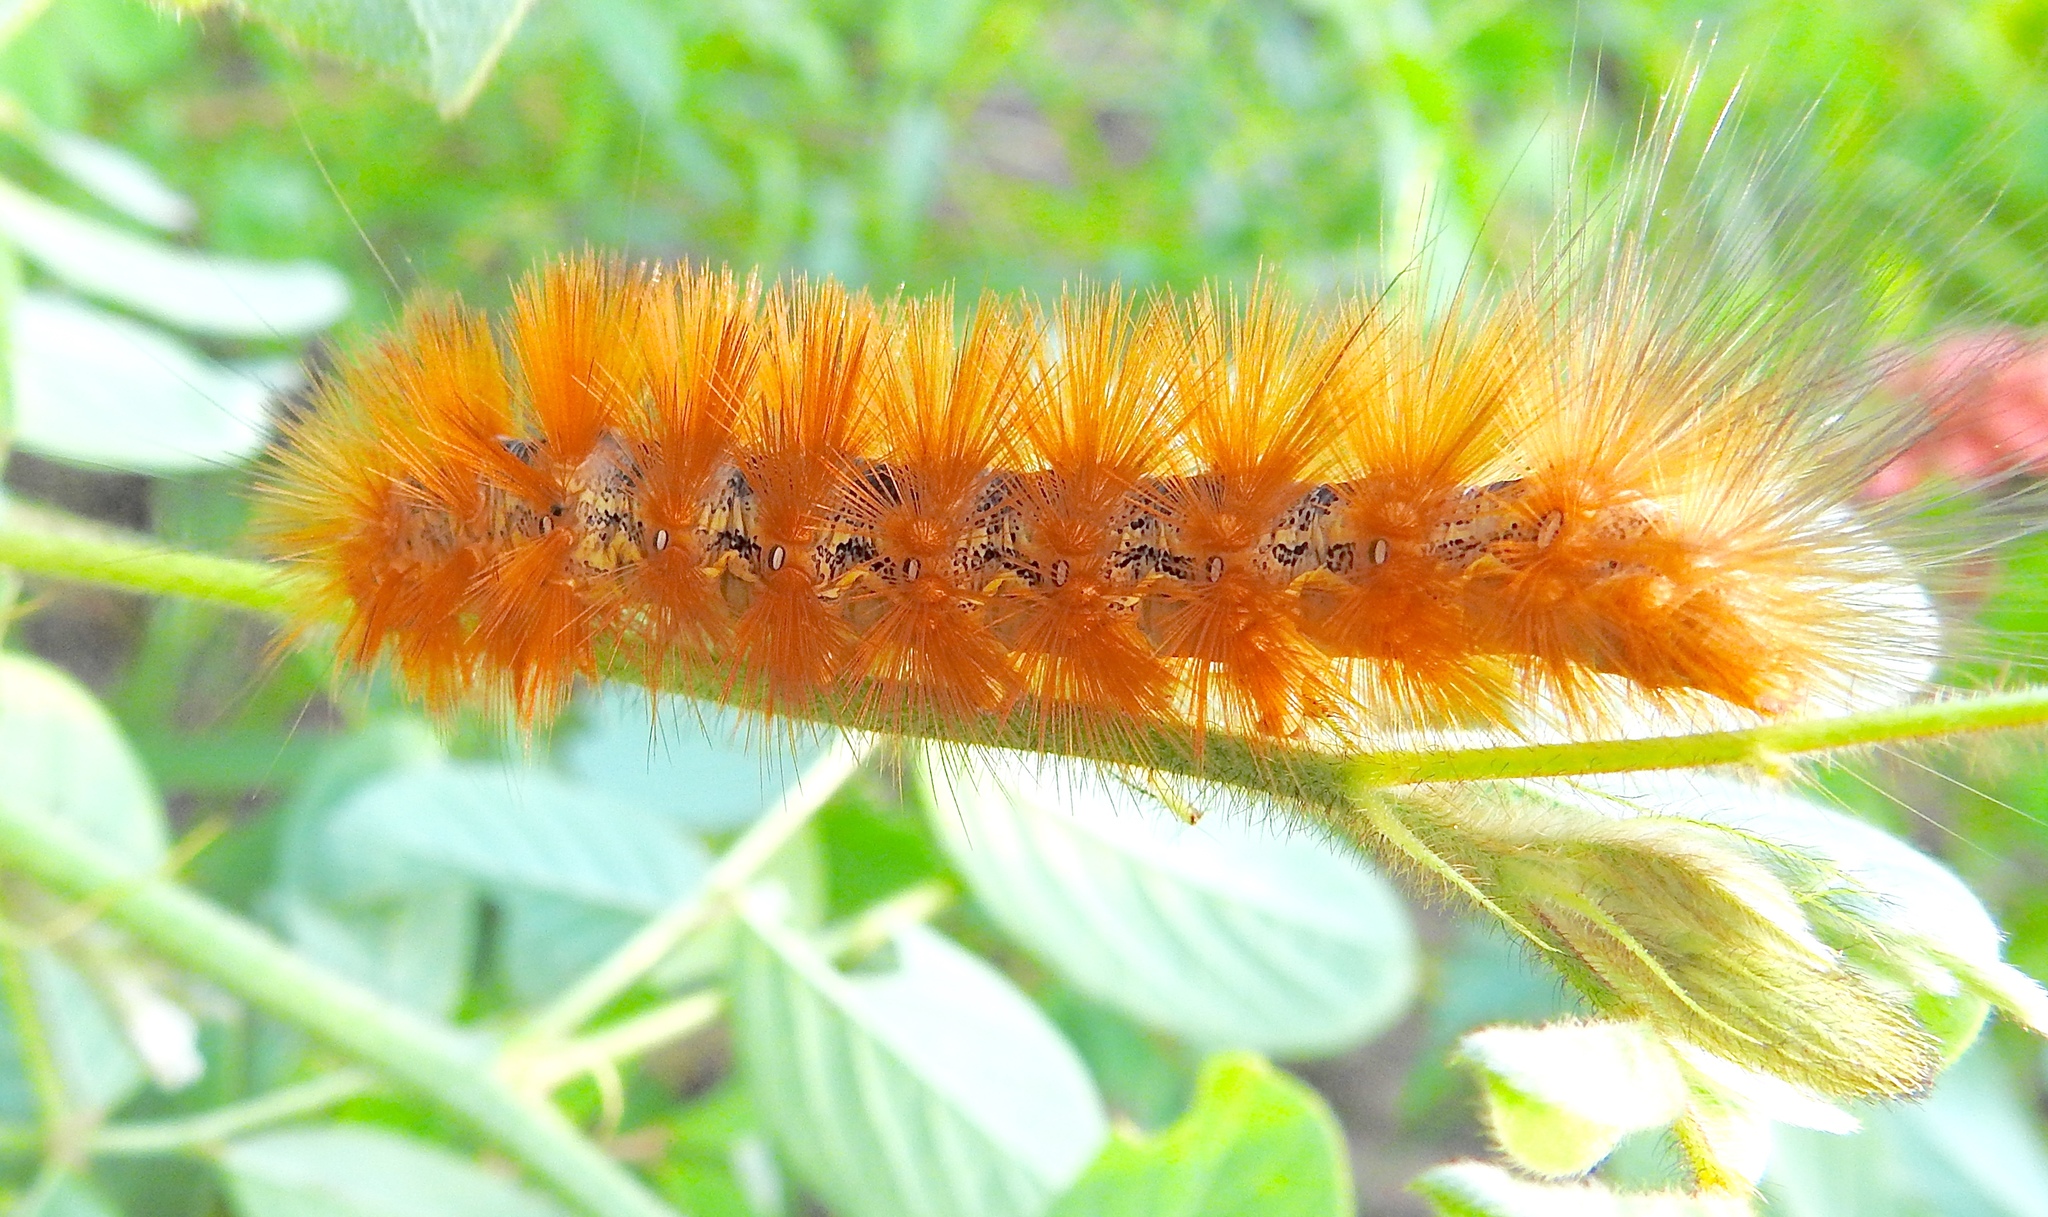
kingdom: Animalia
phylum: Arthropoda
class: Insecta
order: Lepidoptera
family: Erebidae
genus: Estigmene
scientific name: Estigmene acrea
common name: Salt marsh moth
